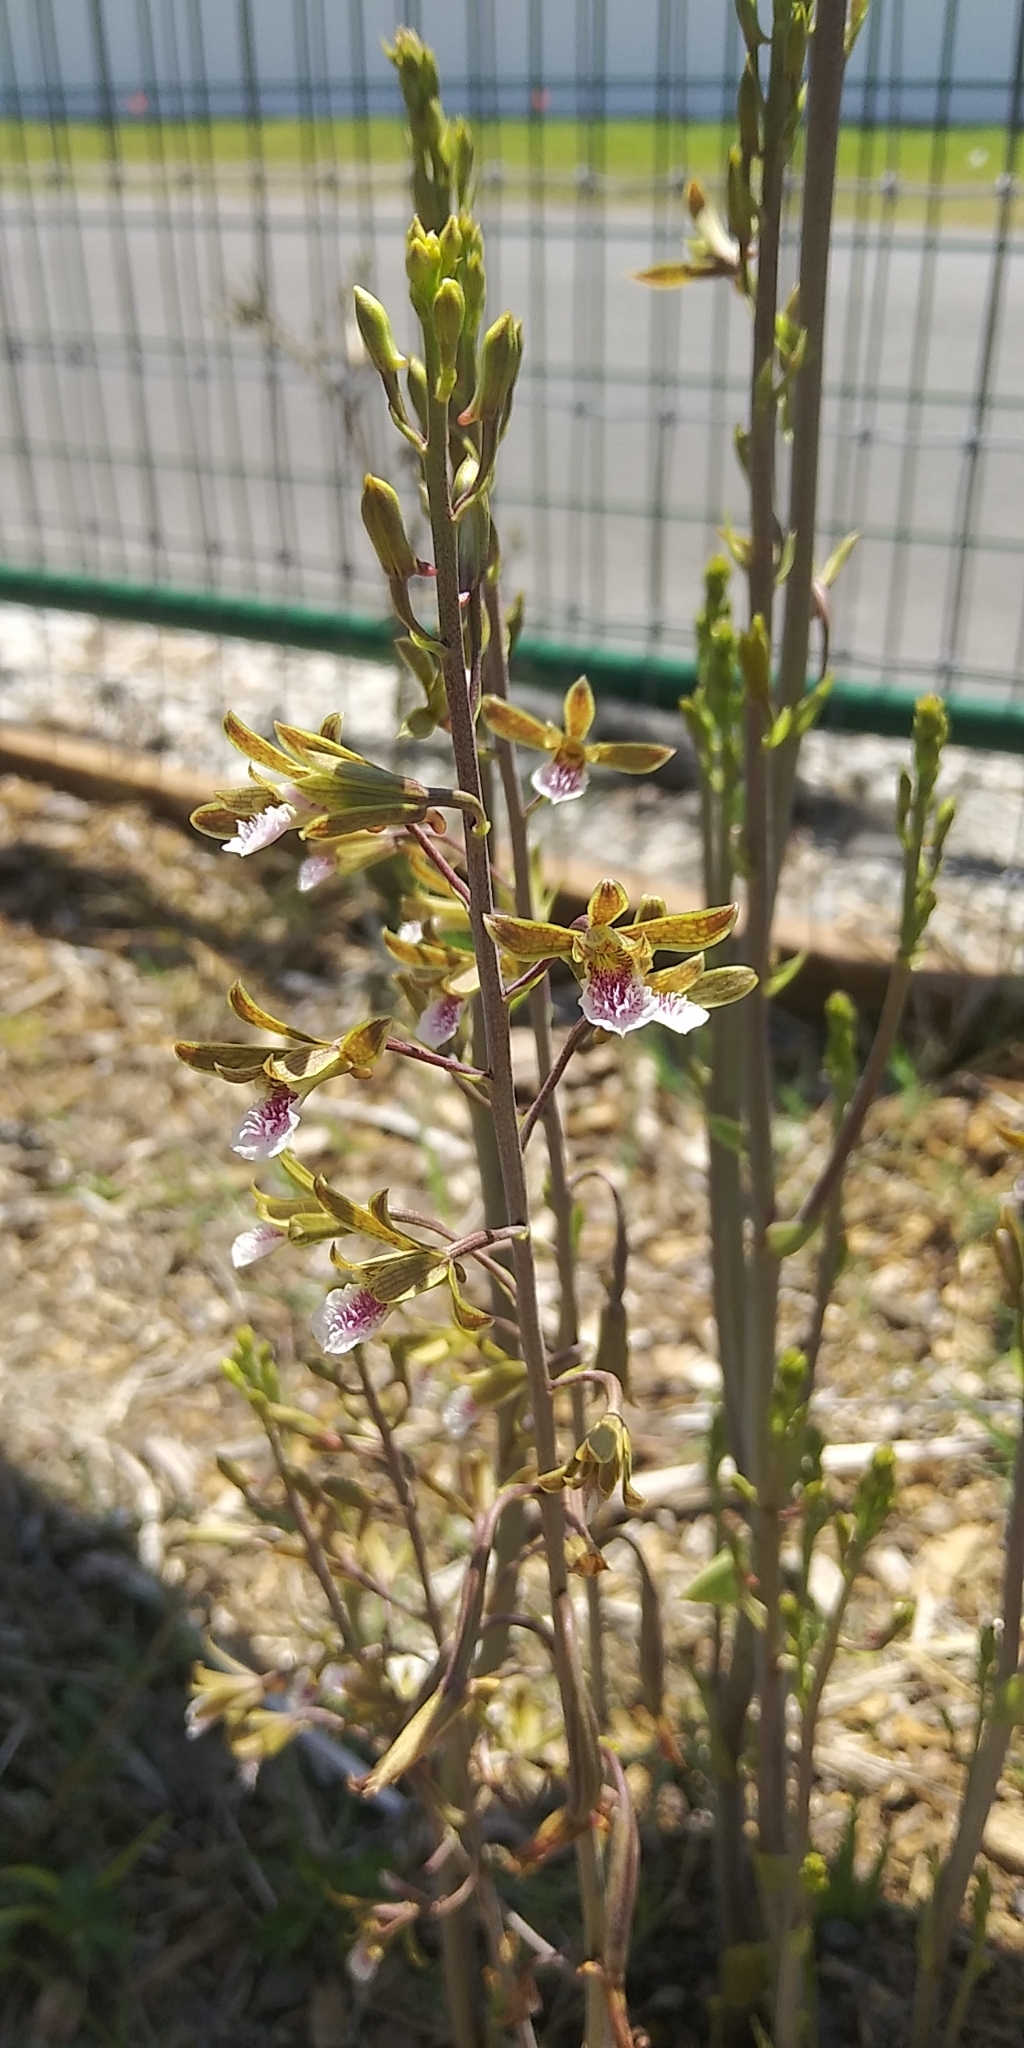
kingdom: Plantae
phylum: Tracheophyta
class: Liliopsida
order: Asparagales
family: Orchidaceae
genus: Eulophia
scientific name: Eulophia graminea
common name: Orchid
